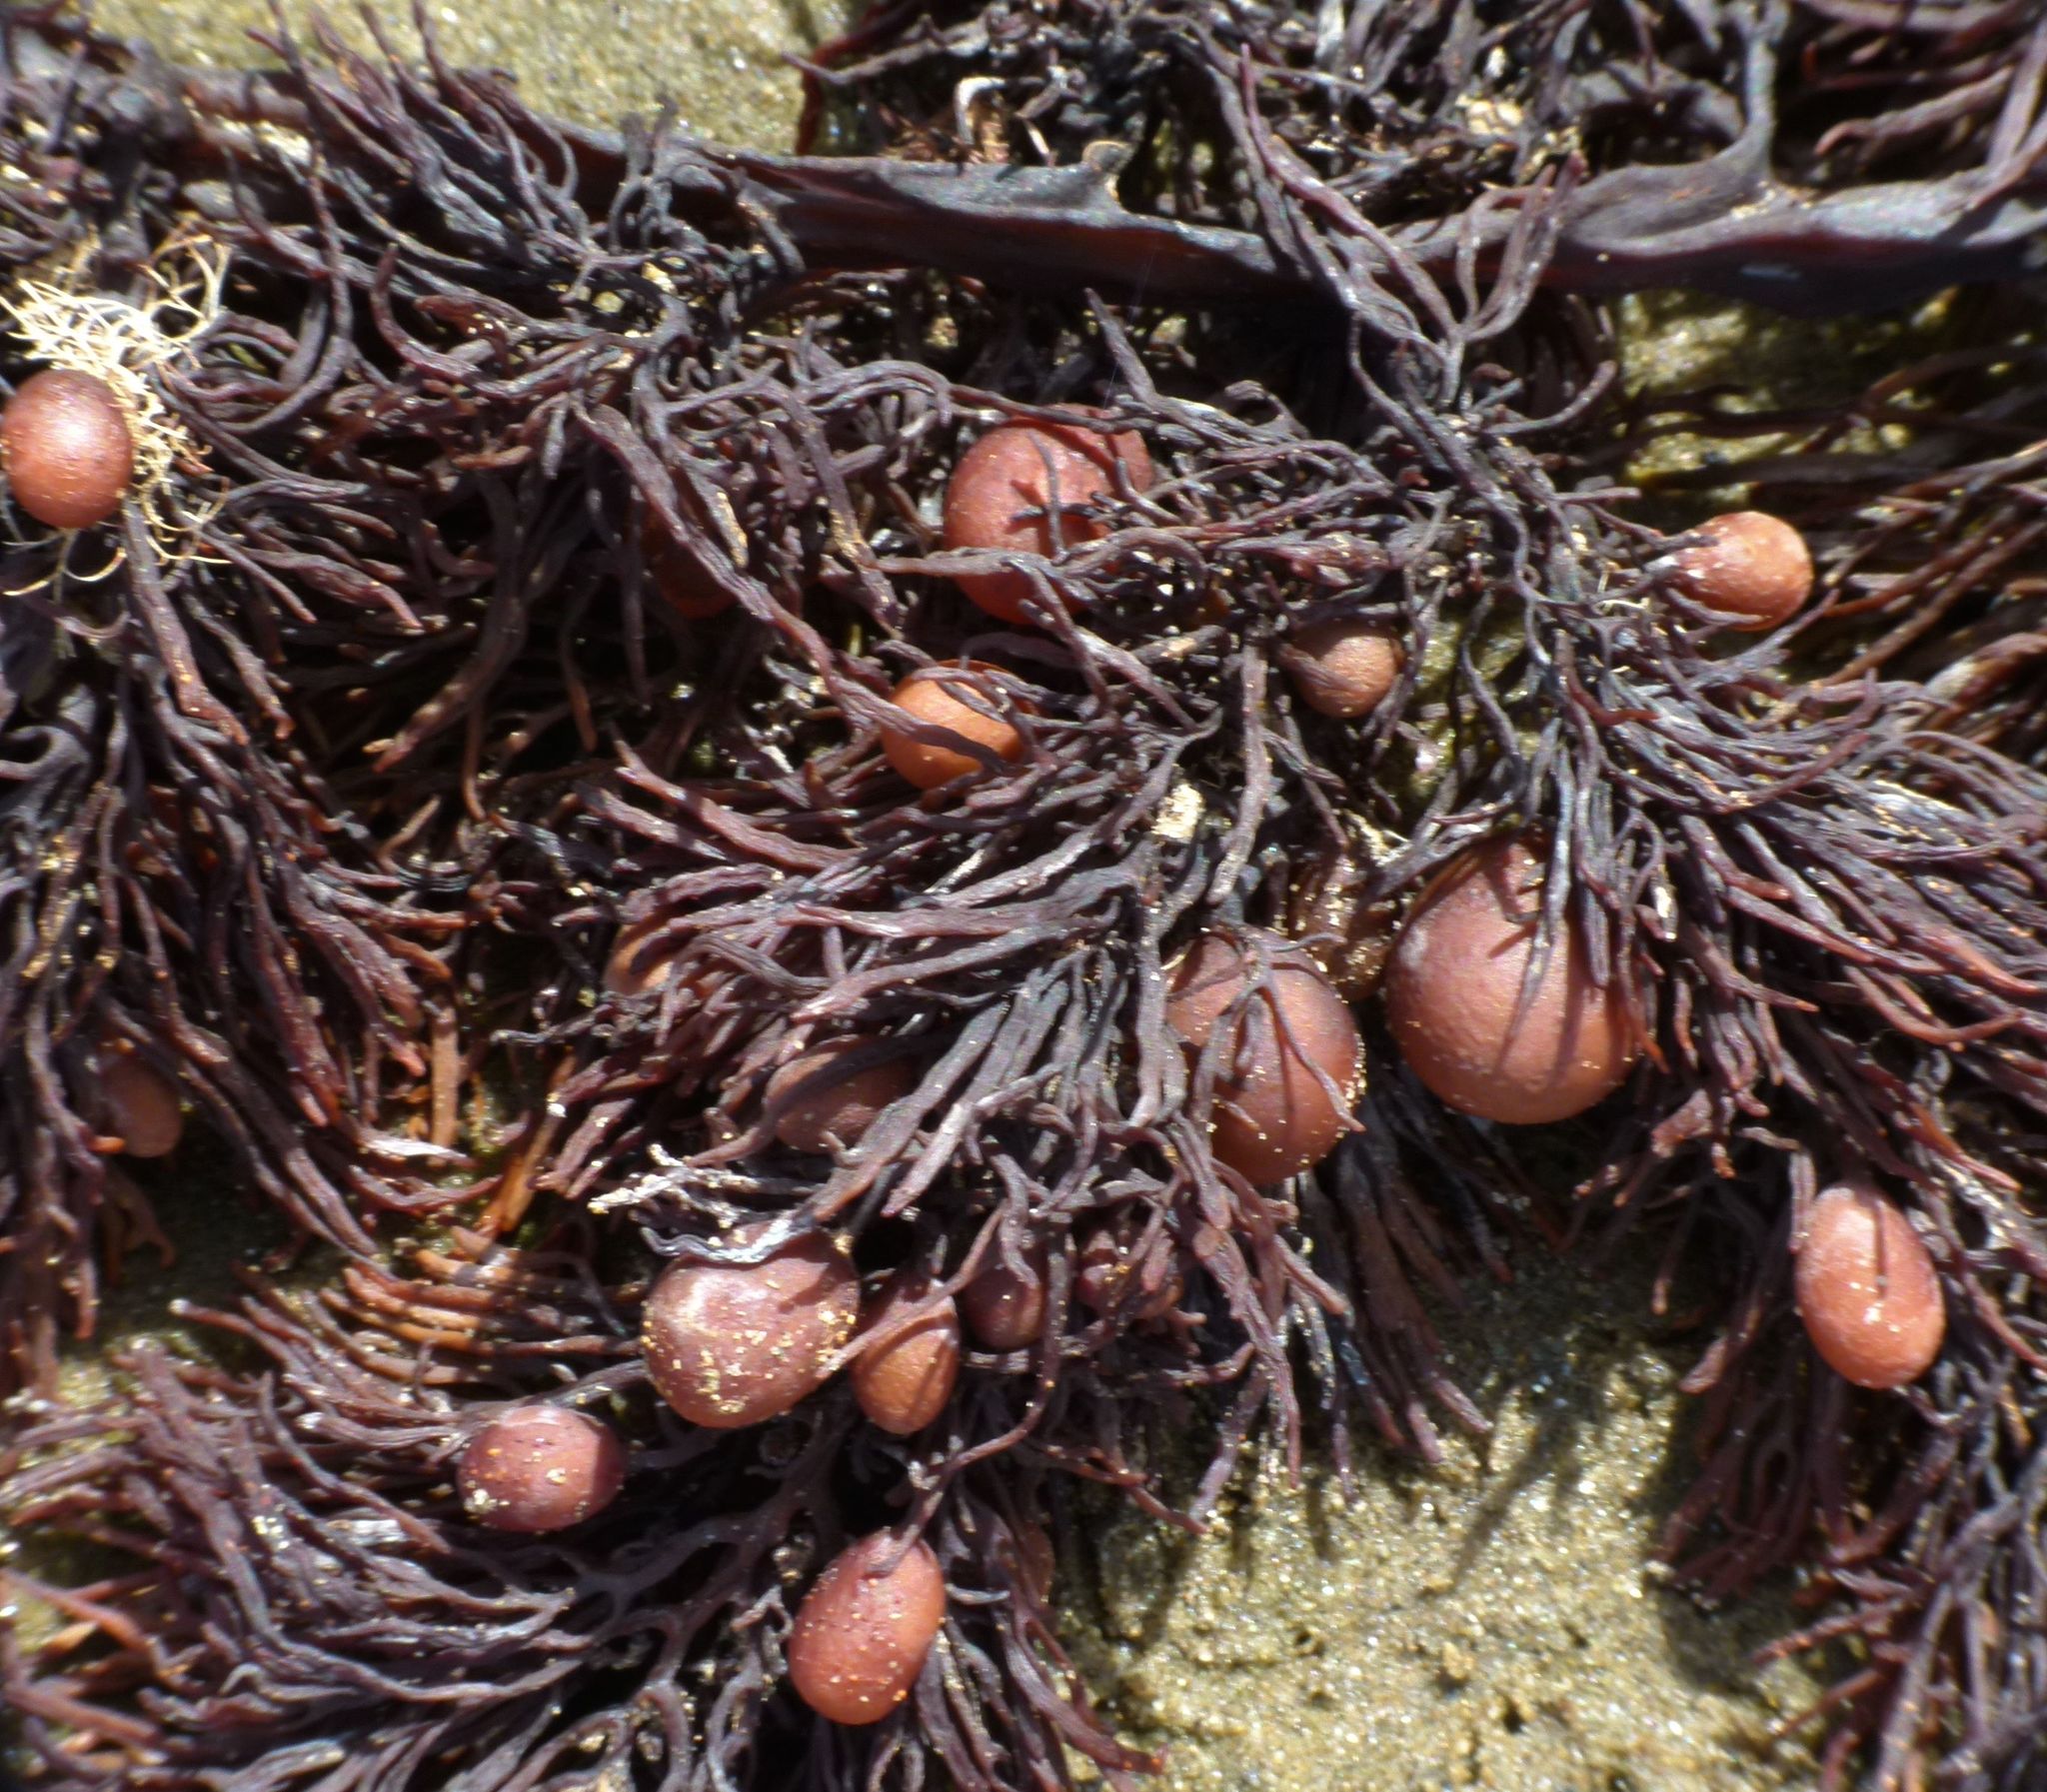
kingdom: Chromista
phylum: Ochrophyta
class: Phaeophyceae
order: Fucales
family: Sargassaceae
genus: Cystophora
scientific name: Cystophora retroflexa
